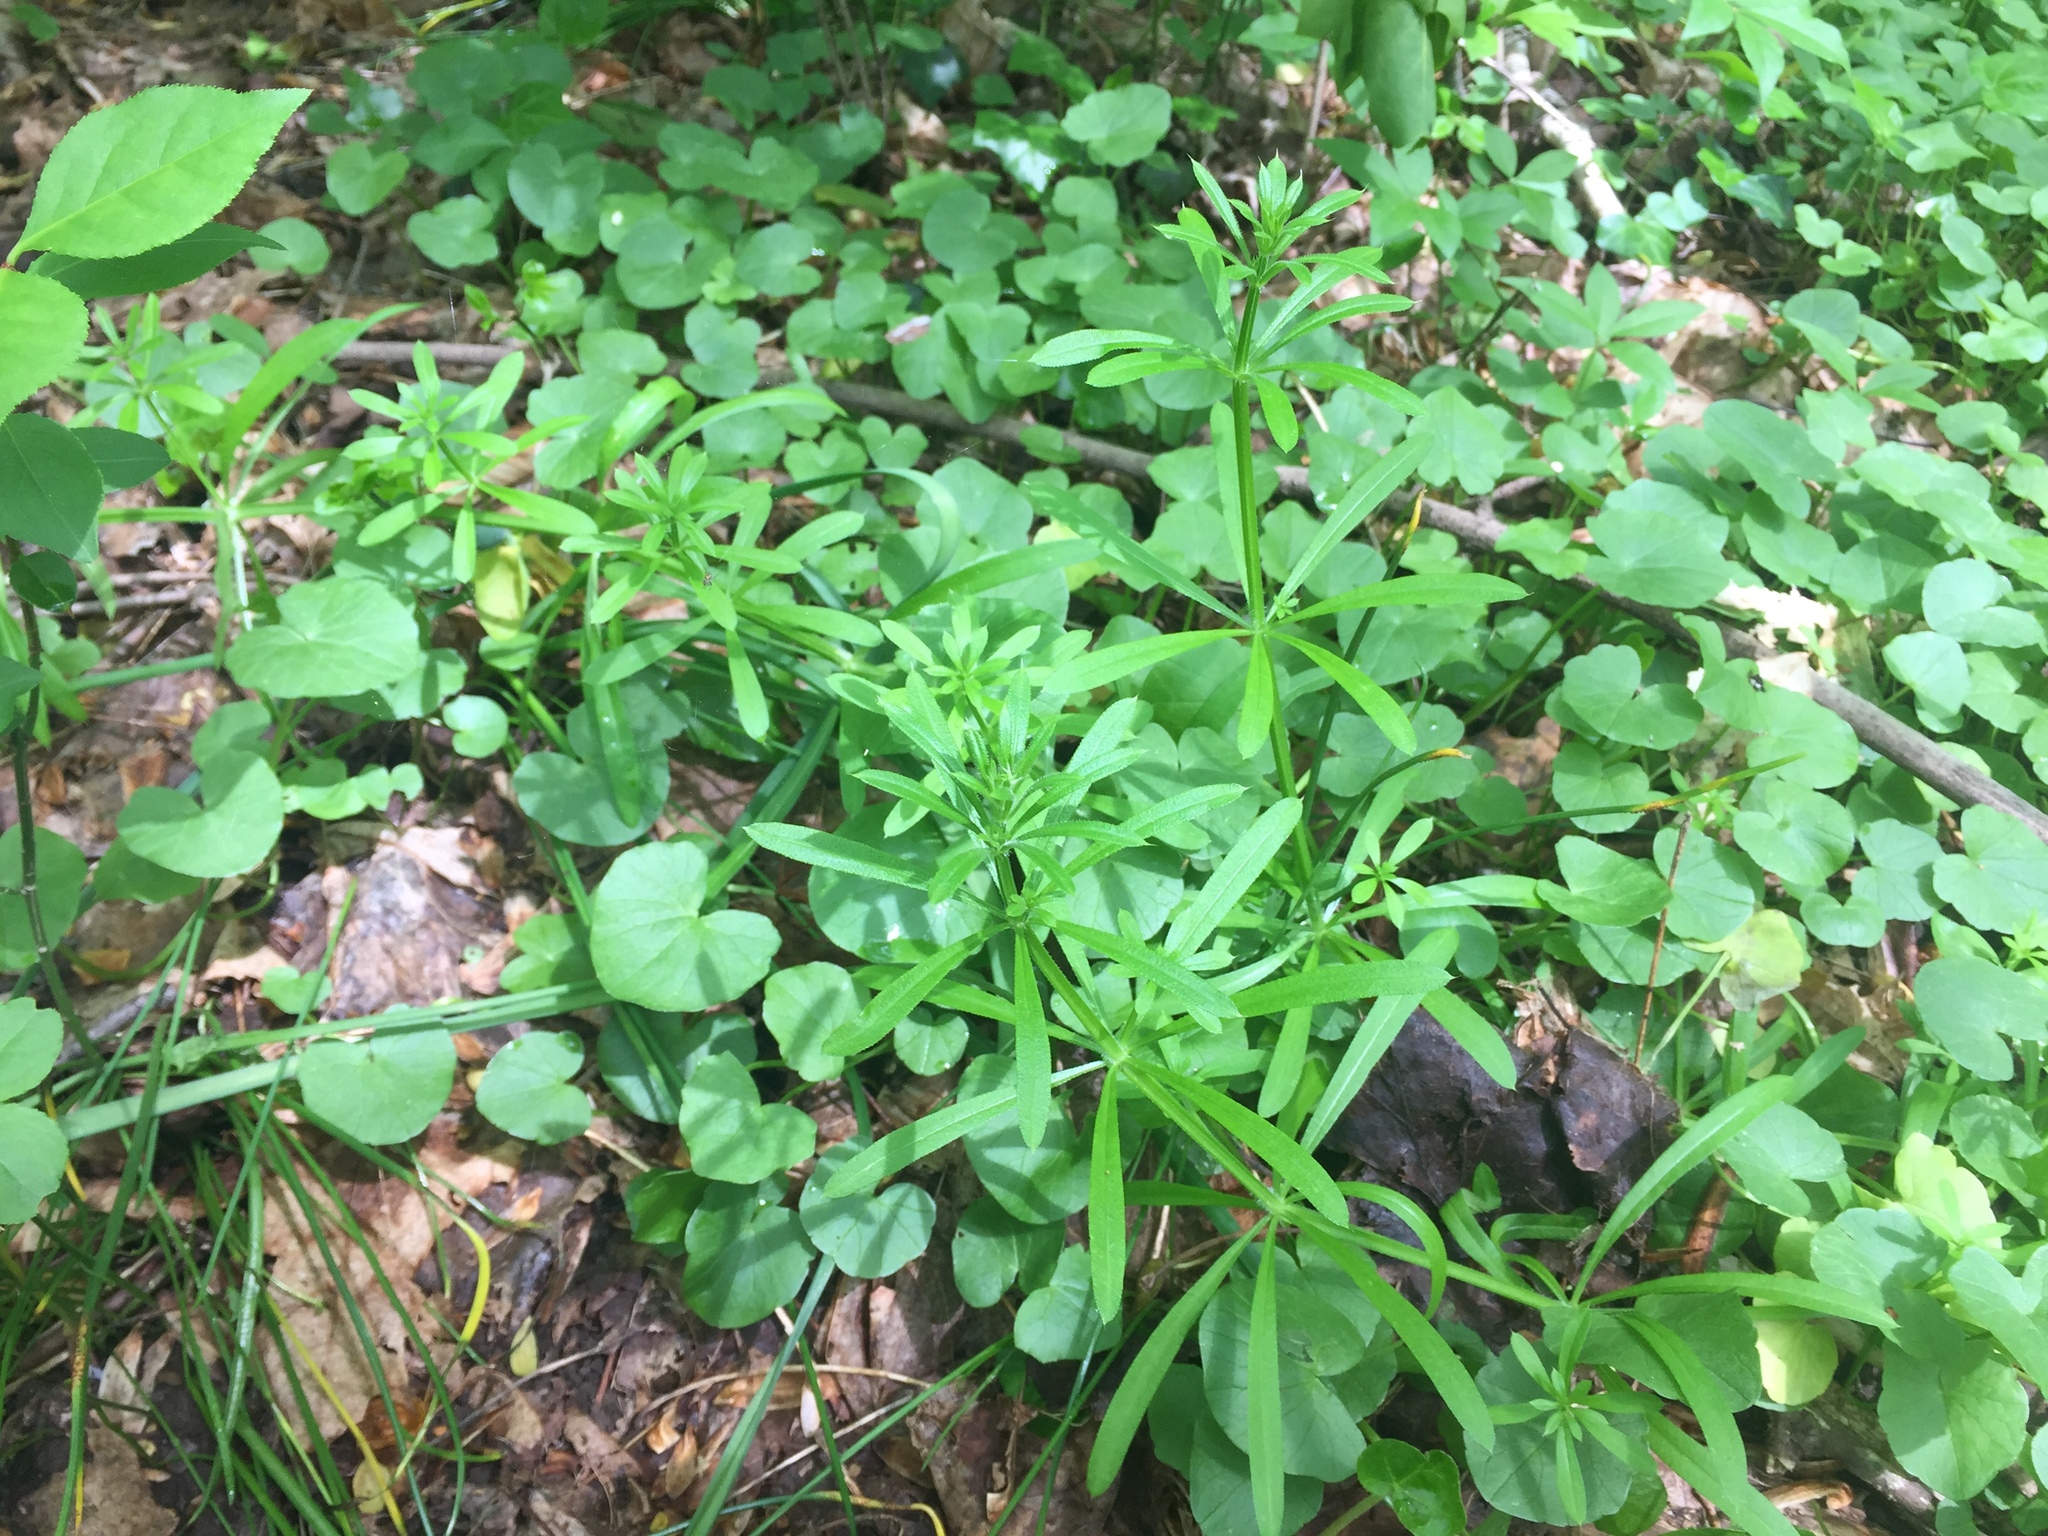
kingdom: Plantae
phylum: Tracheophyta
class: Magnoliopsida
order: Gentianales
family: Rubiaceae
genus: Galium
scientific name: Galium aparine
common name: Cleavers
